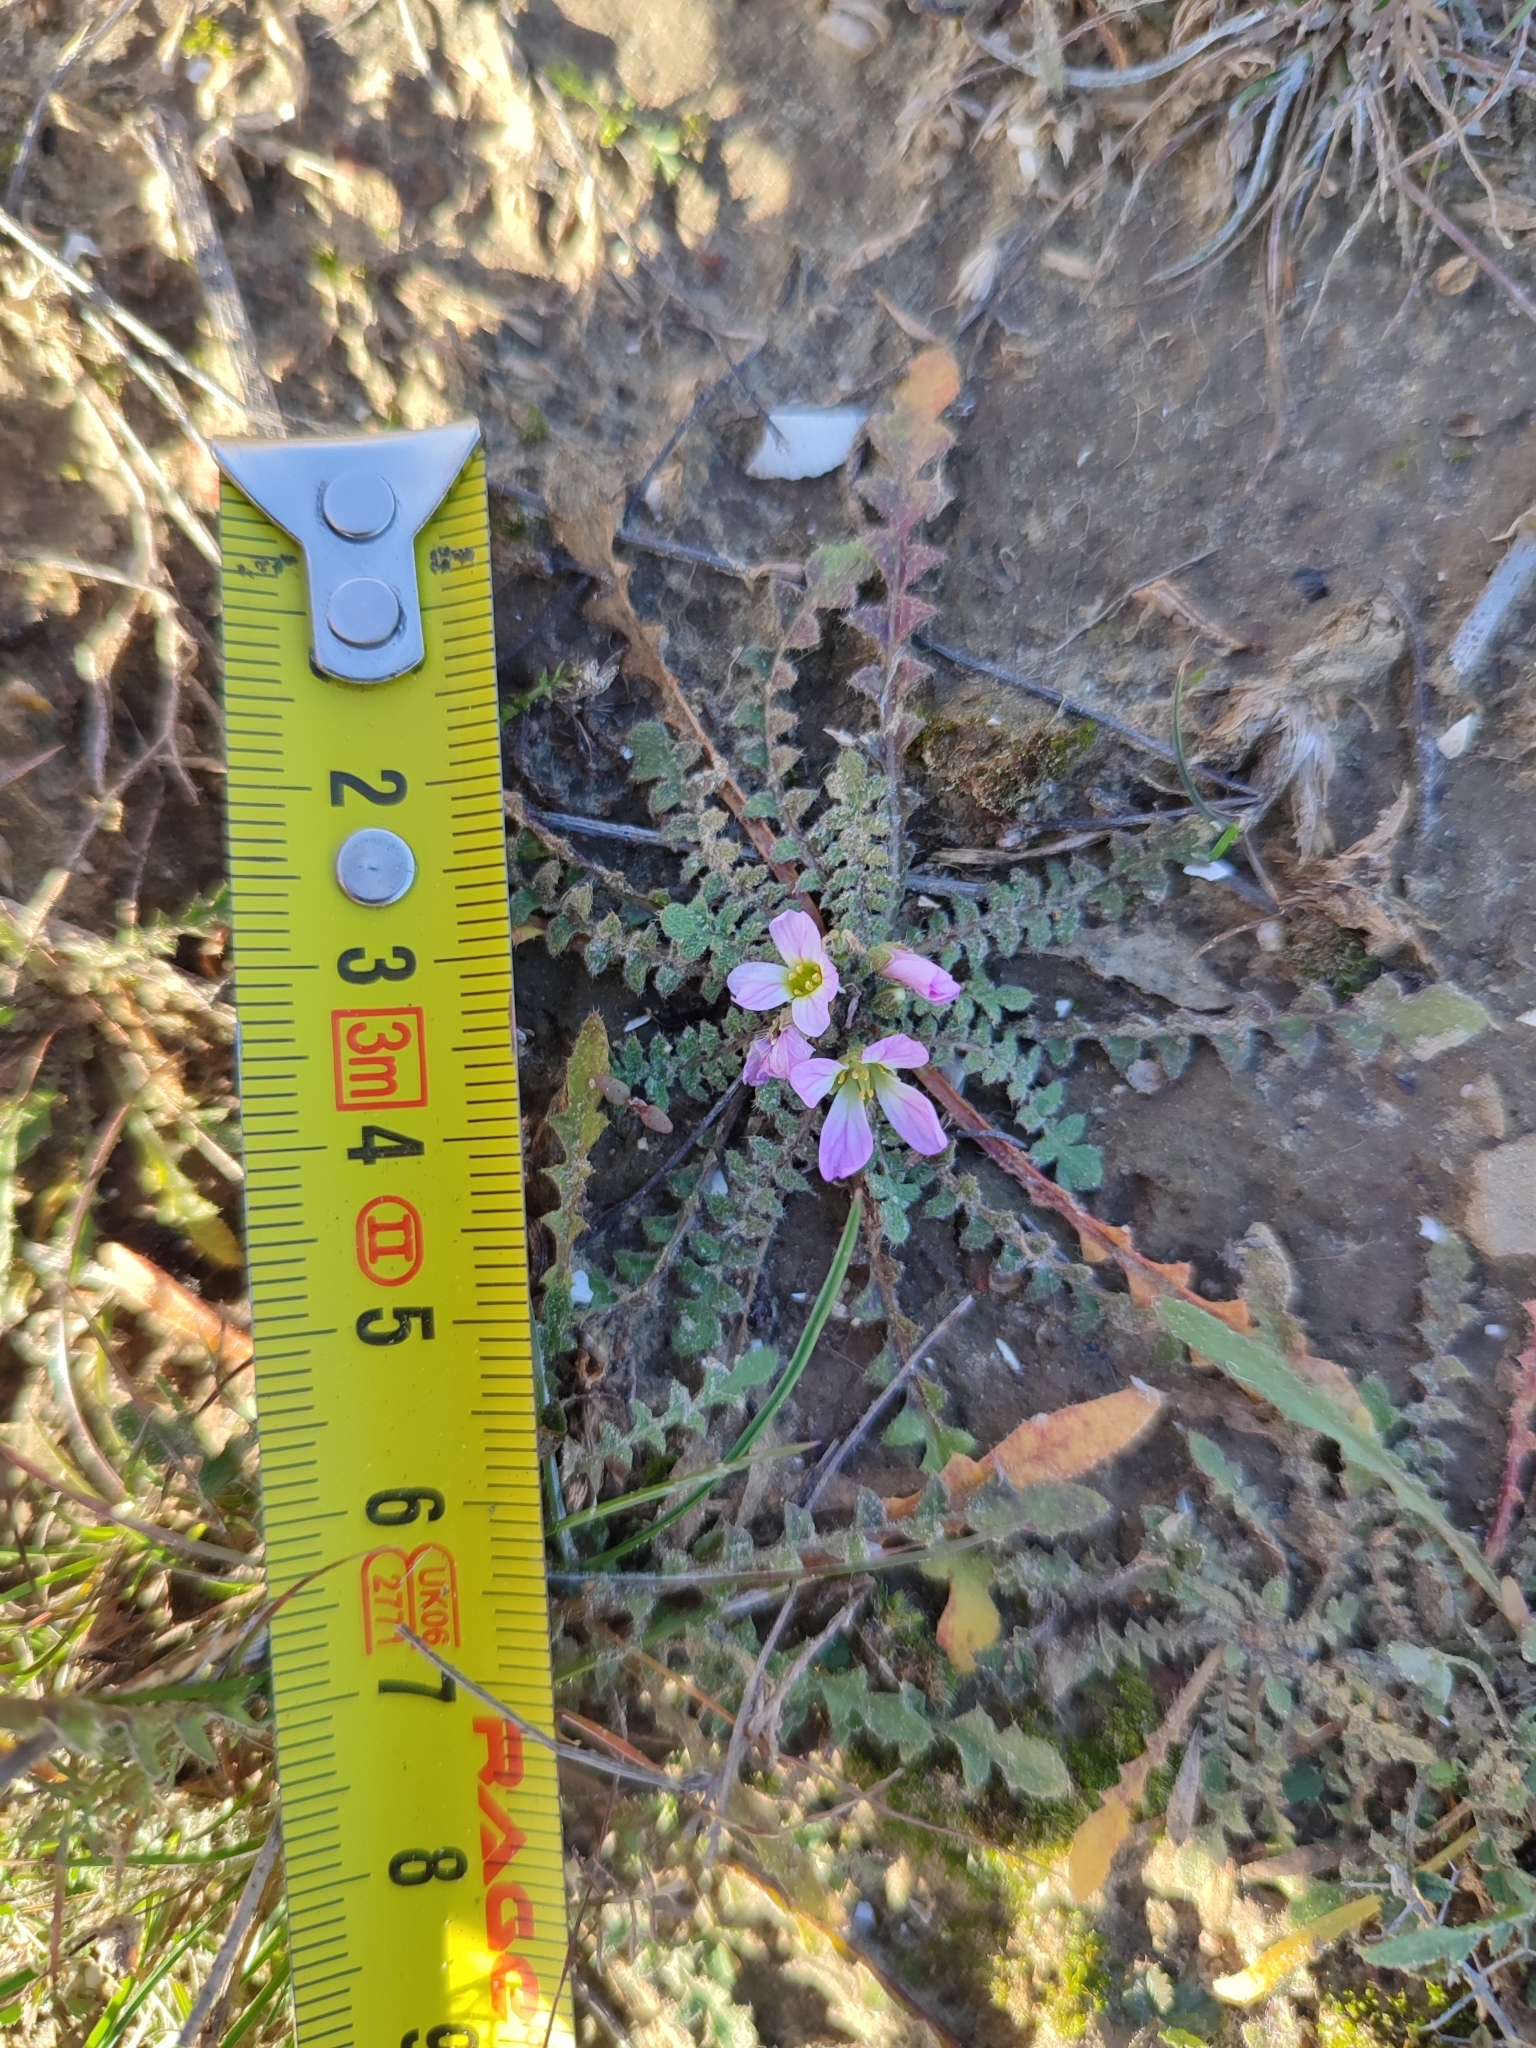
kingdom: Plantae
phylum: Tracheophyta
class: Magnoliopsida
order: Brassicales
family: Brassicaceae
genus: Neotorularia
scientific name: Neotorularia contortuplicata
